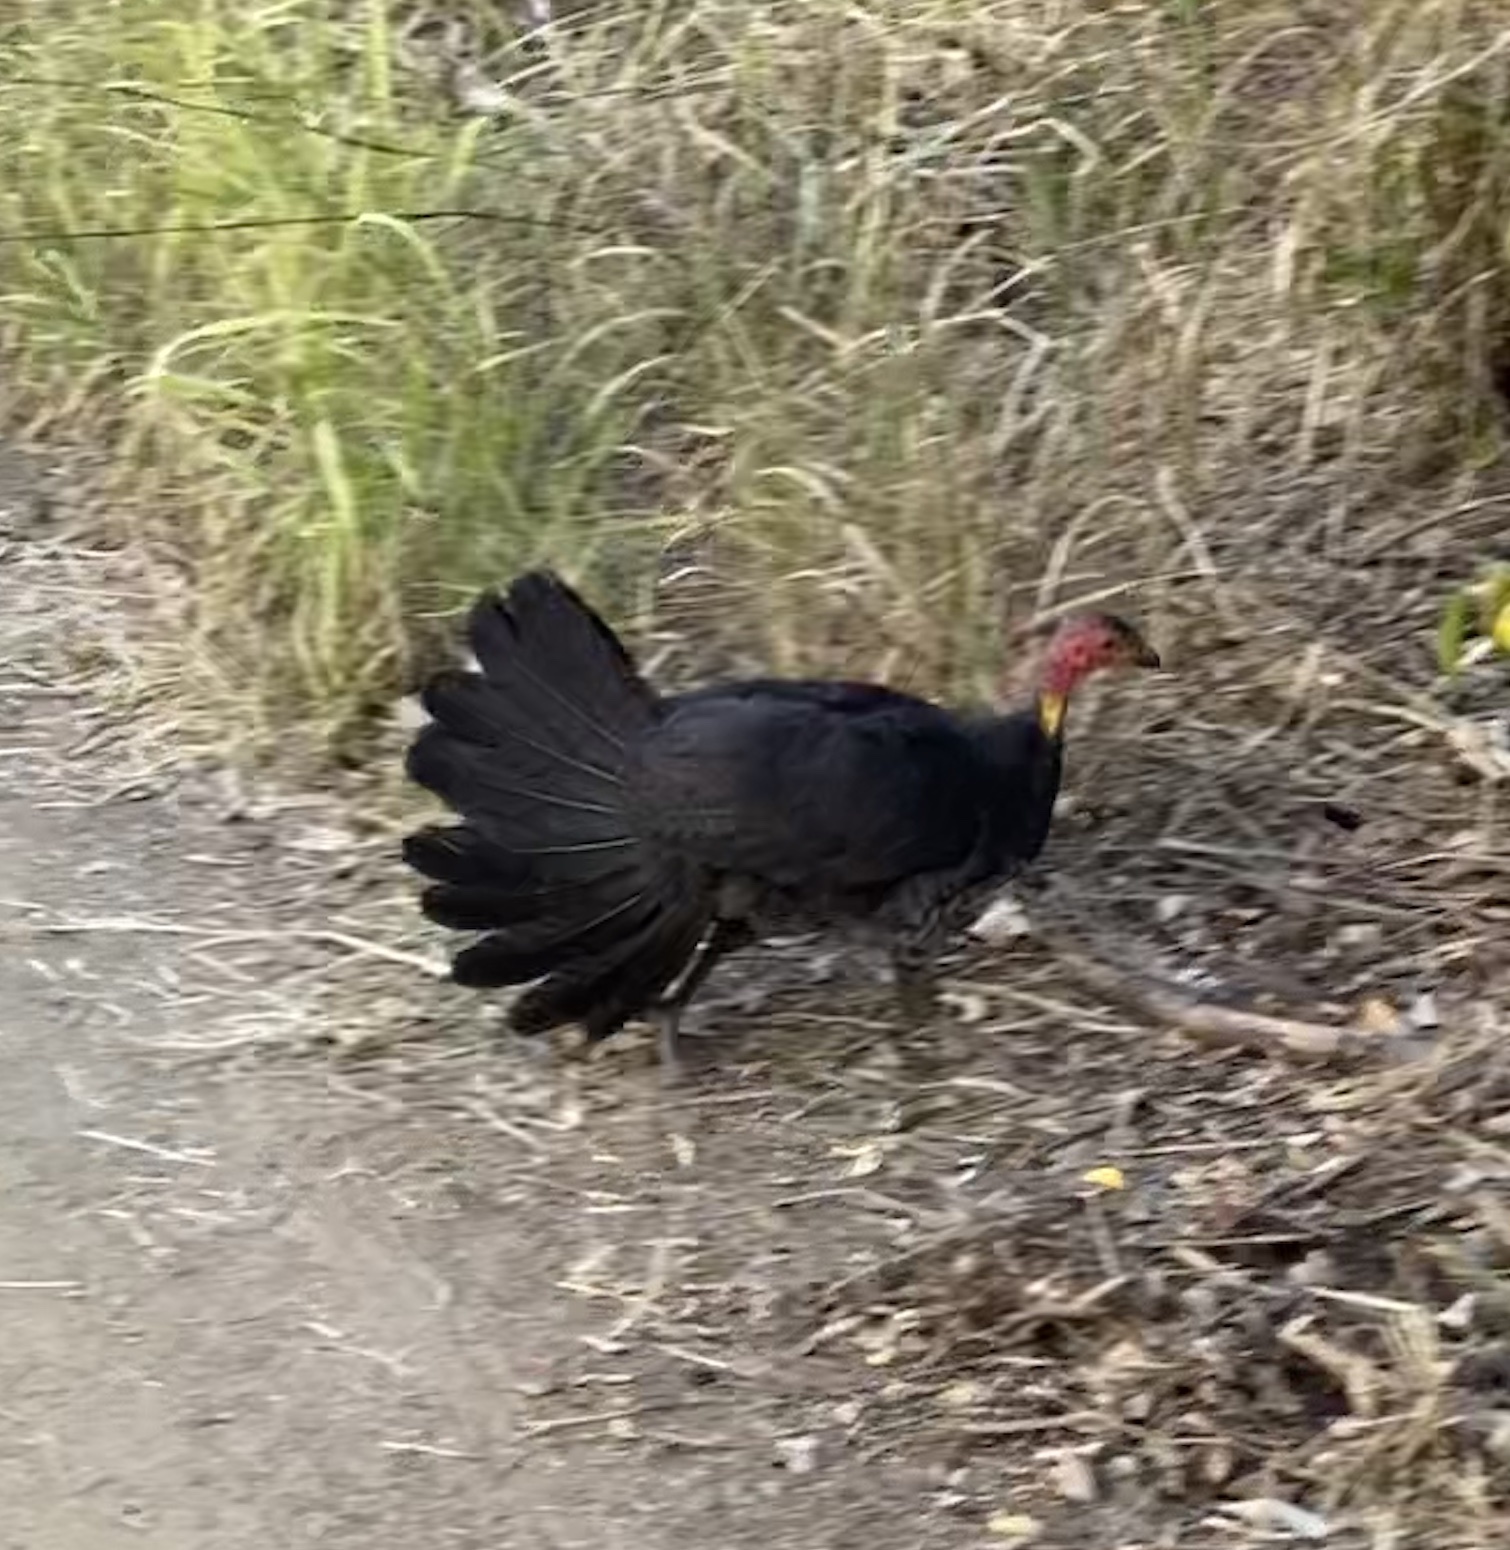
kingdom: Animalia
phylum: Chordata
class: Aves
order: Galliformes
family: Megapodiidae
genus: Alectura
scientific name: Alectura lathami
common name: Australian brushturkey
